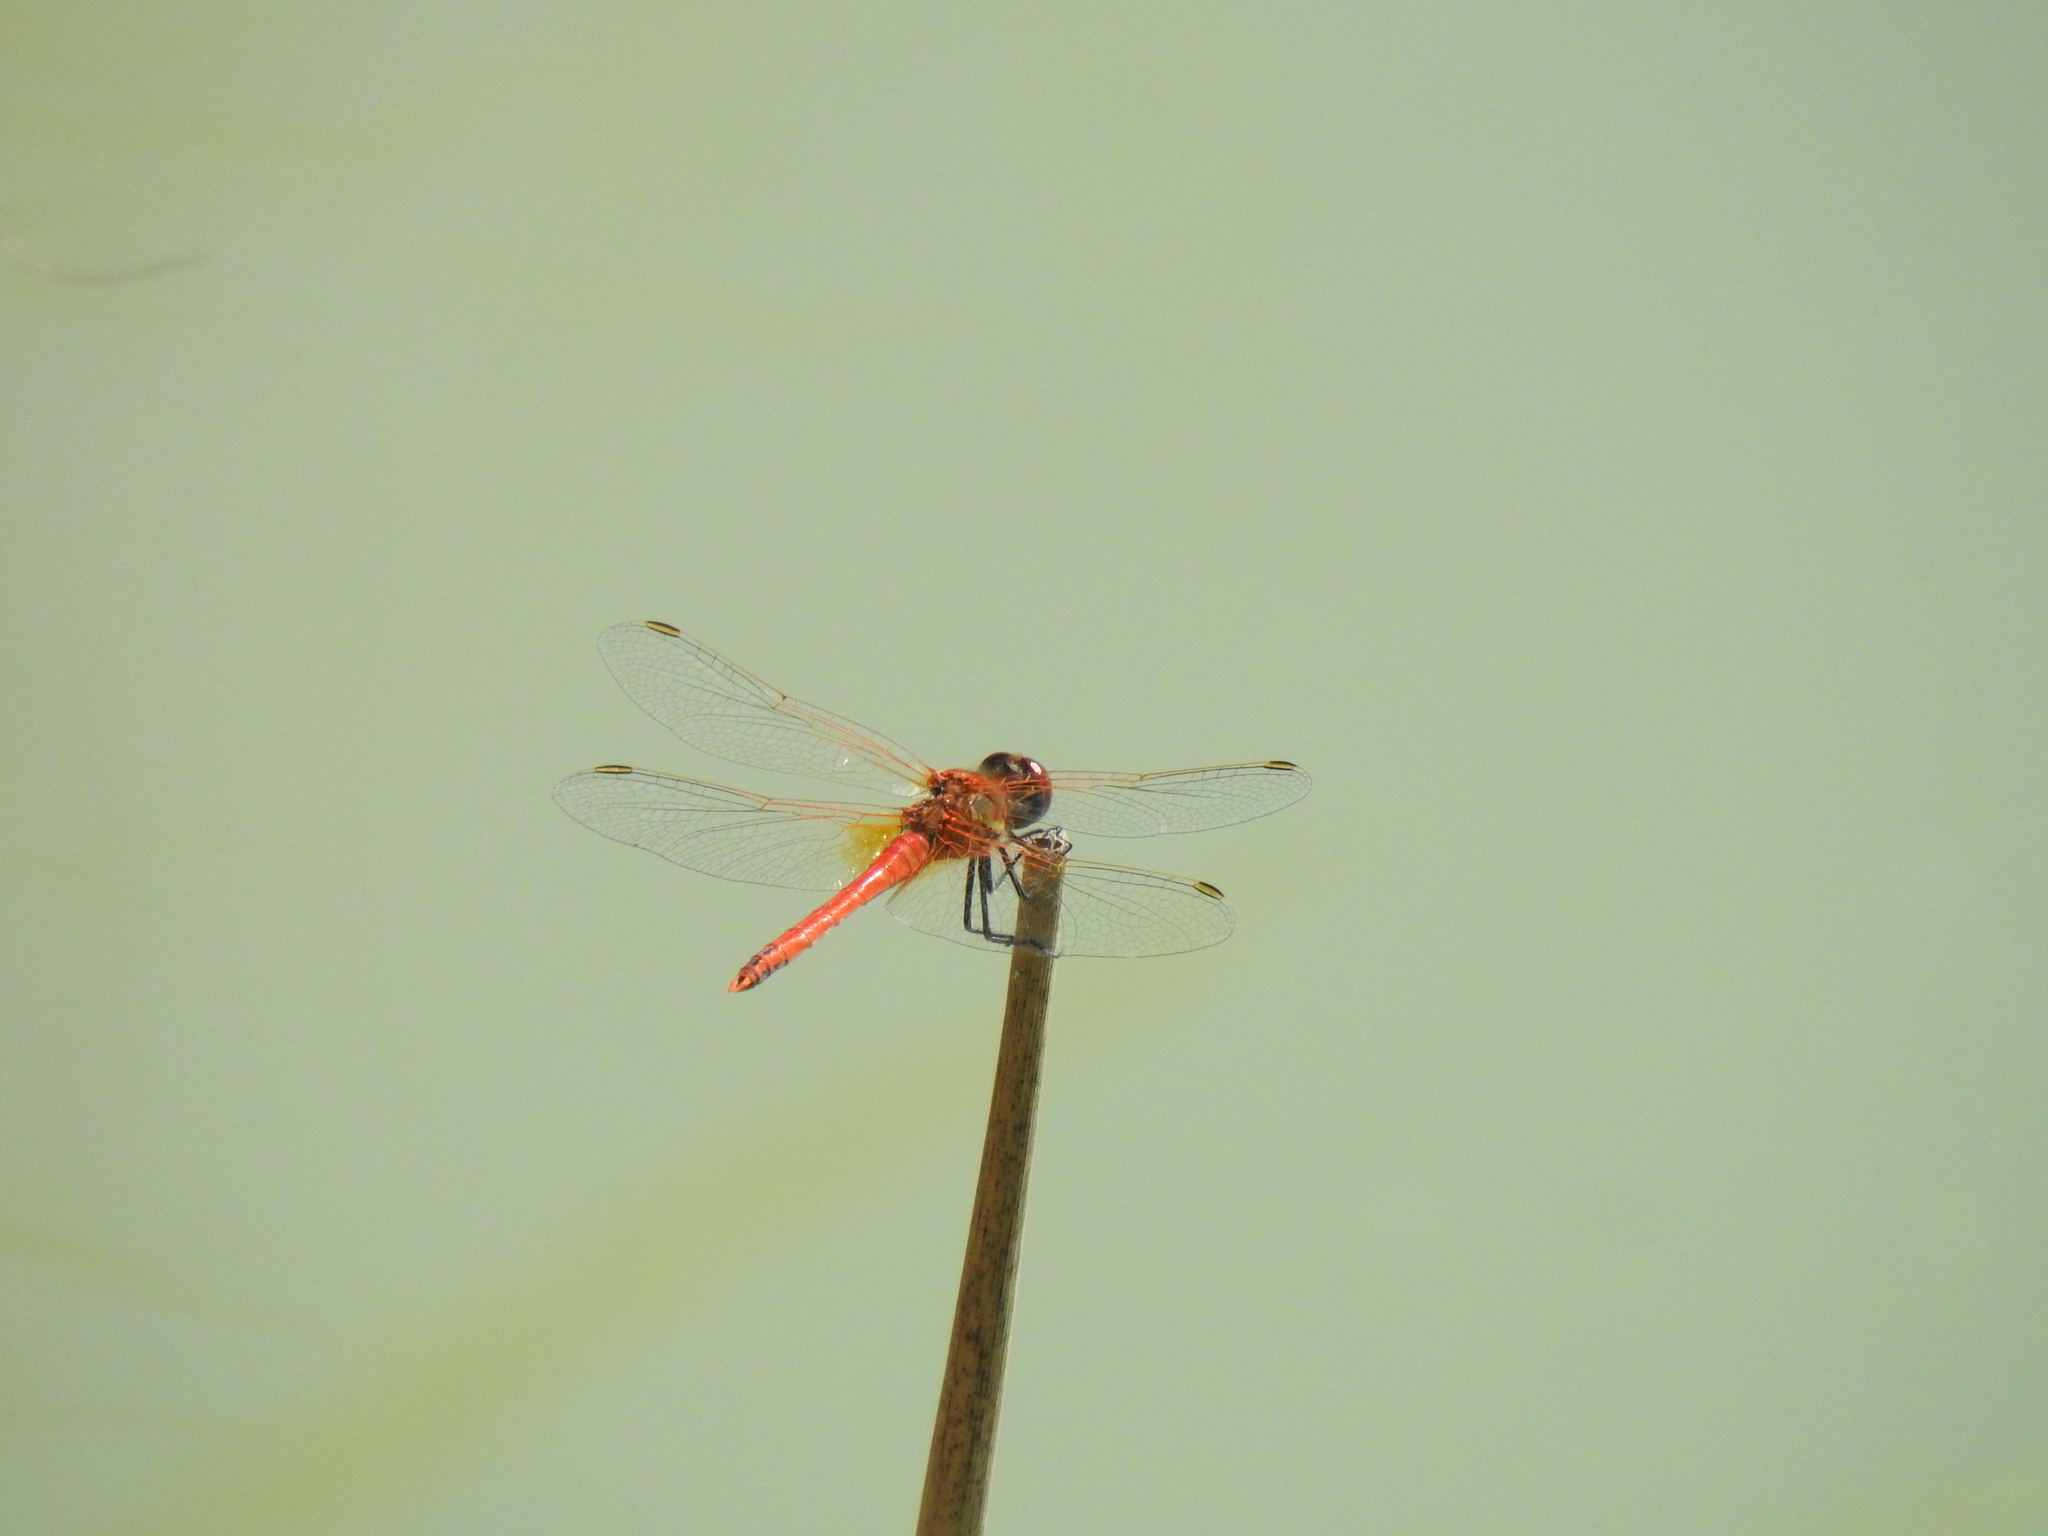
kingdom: Animalia
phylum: Arthropoda
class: Insecta
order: Odonata
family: Libellulidae
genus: Sympetrum
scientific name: Sympetrum fonscolombii
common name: Red-veined darter
